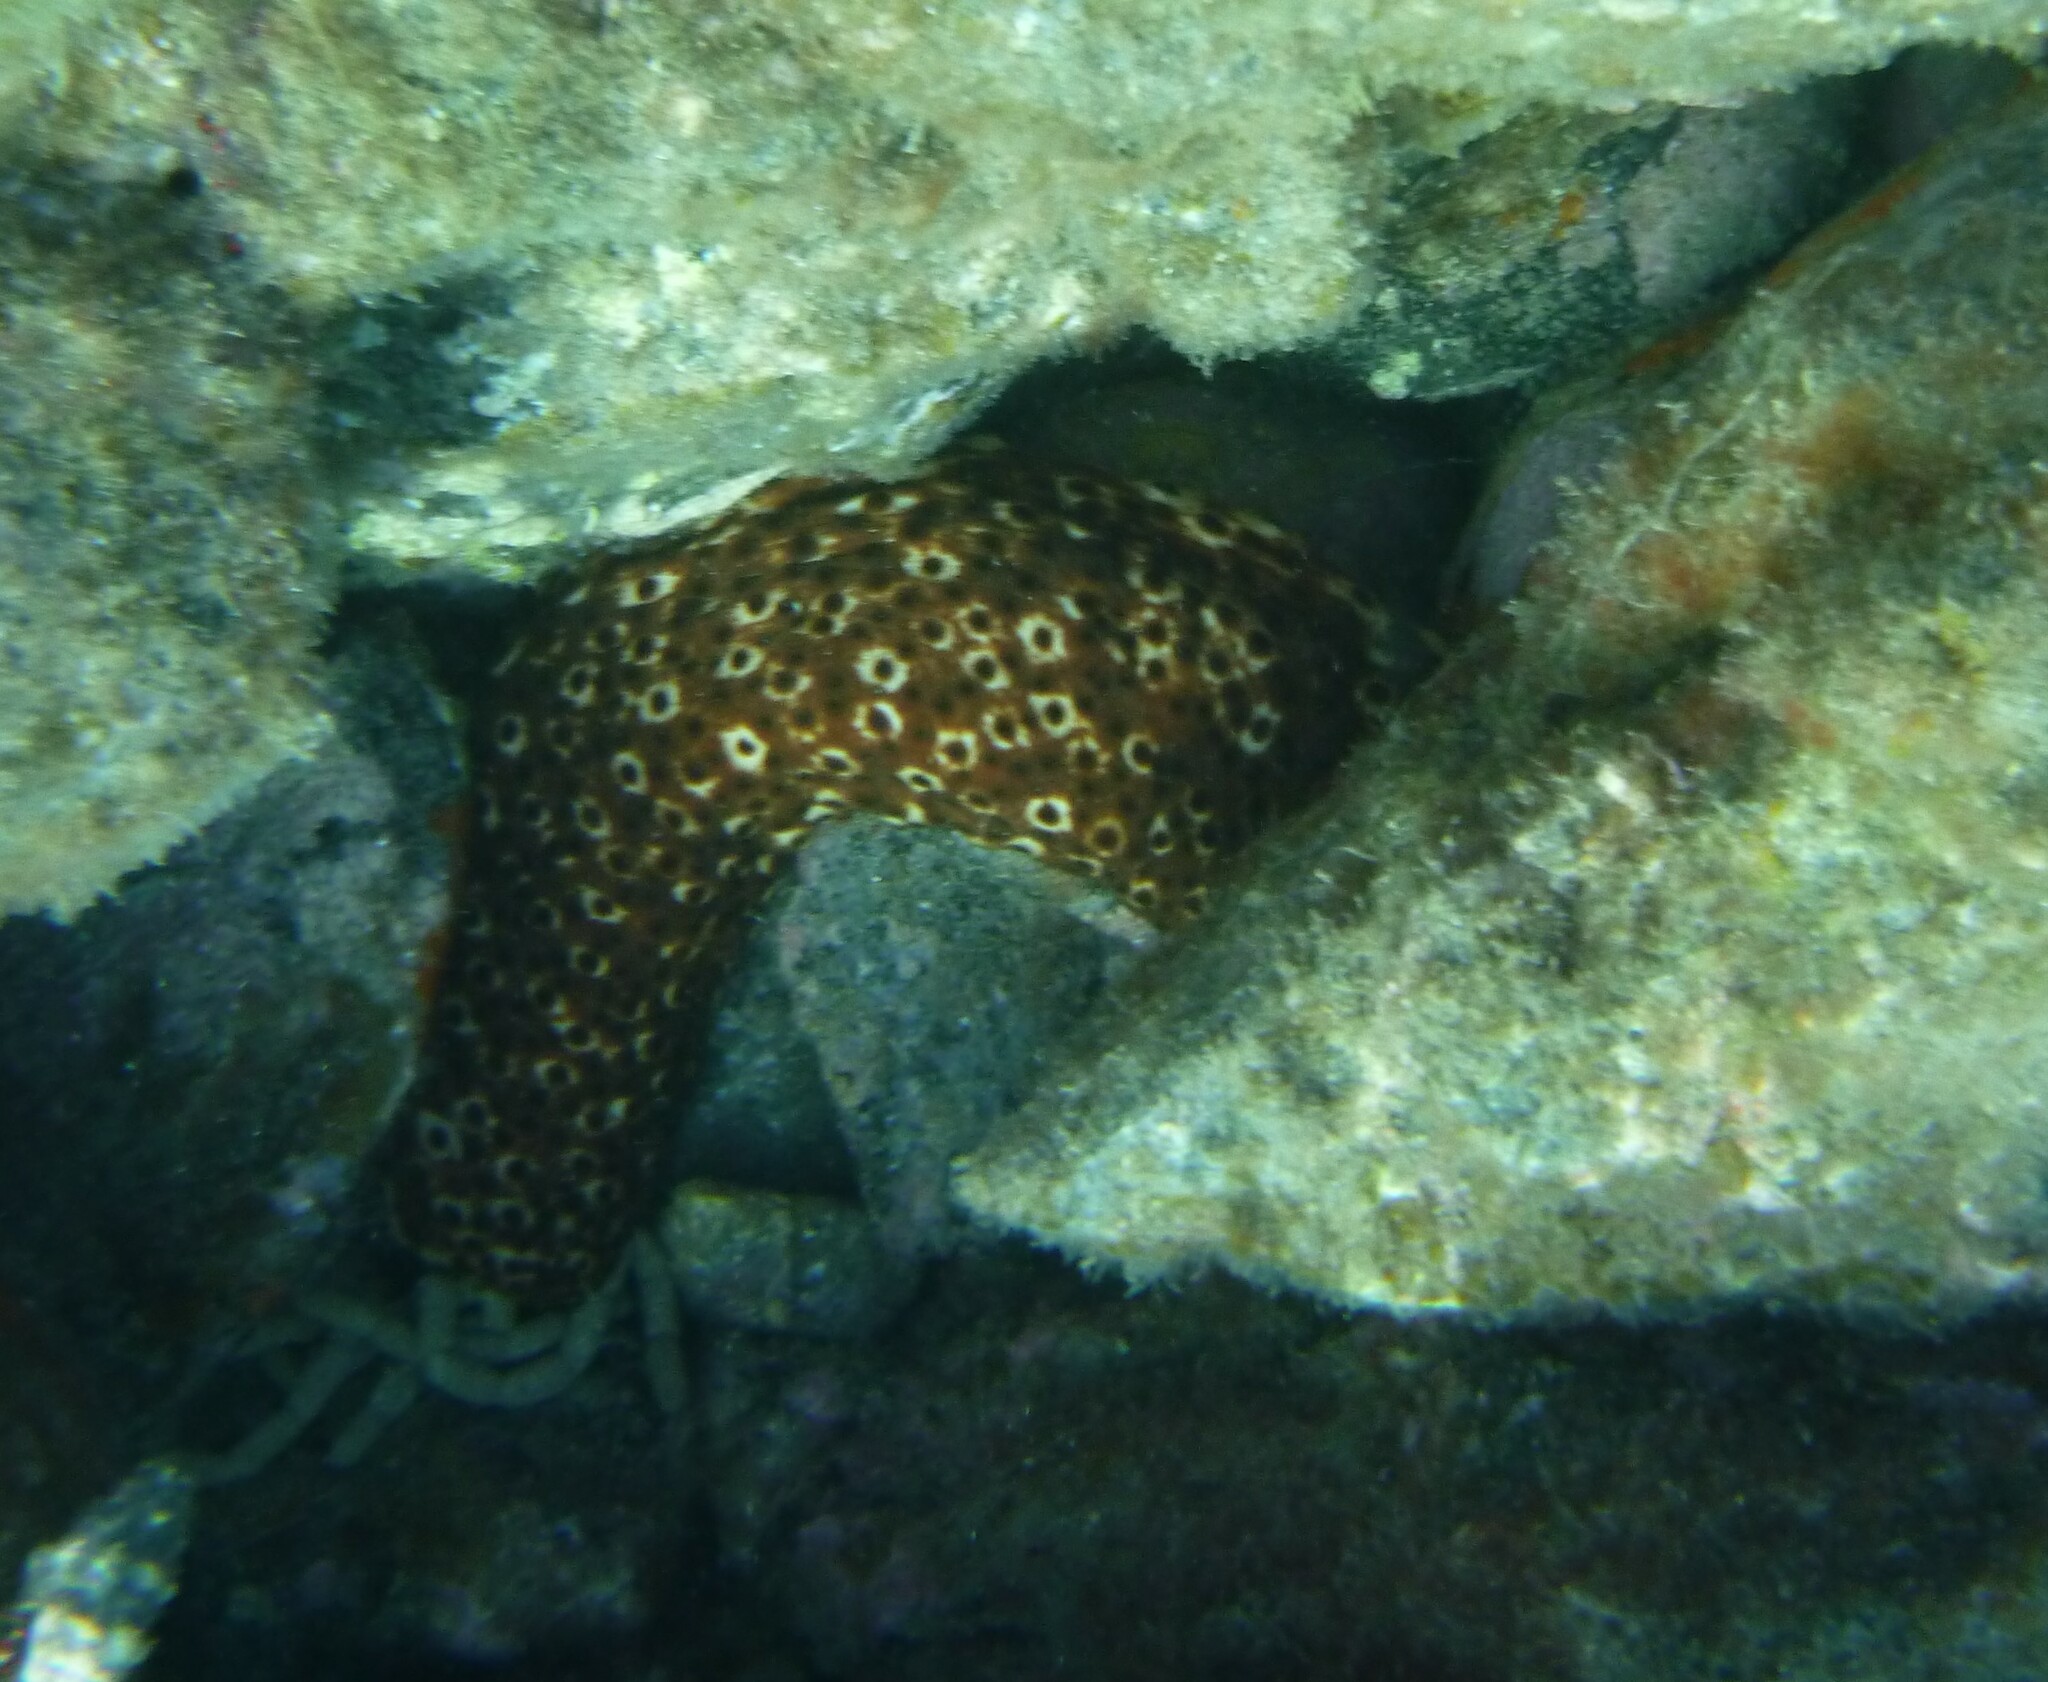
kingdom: Animalia
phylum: Echinodermata
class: Holothuroidea
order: Holothuriida
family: Holothuriidae
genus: Holothuria
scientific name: Holothuria sanctori
